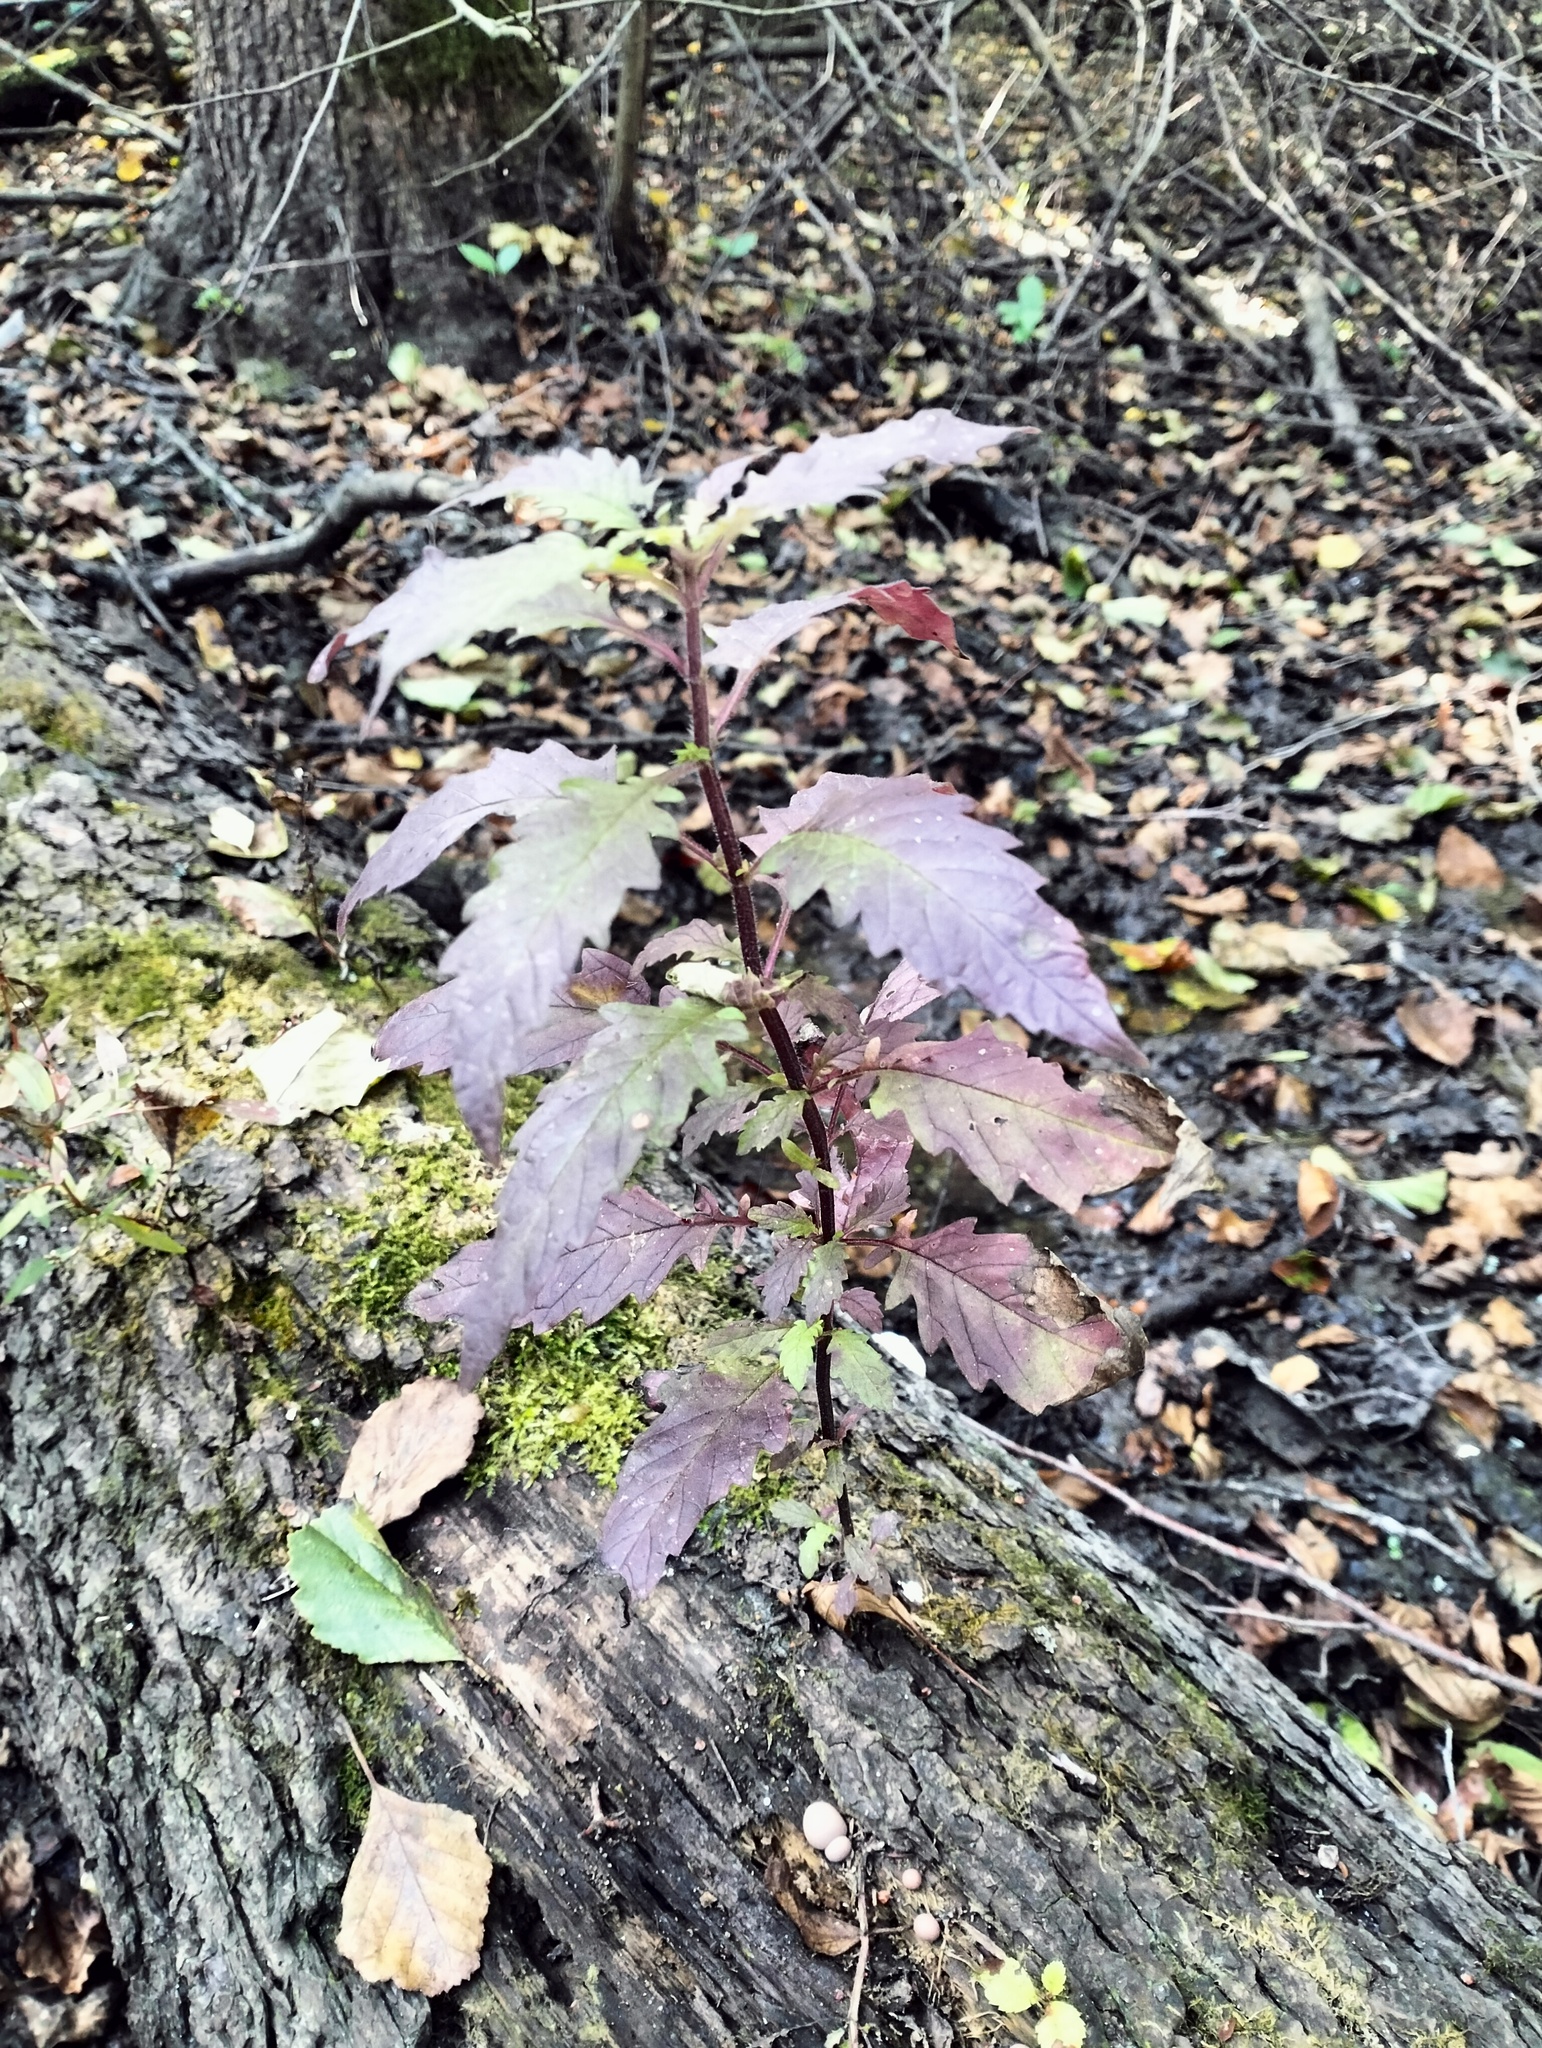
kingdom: Plantae
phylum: Tracheophyta
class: Magnoliopsida
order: Lamiales
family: Lamiaceae
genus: Lycopus
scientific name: Lycopus europaeus
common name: European bugleweed
